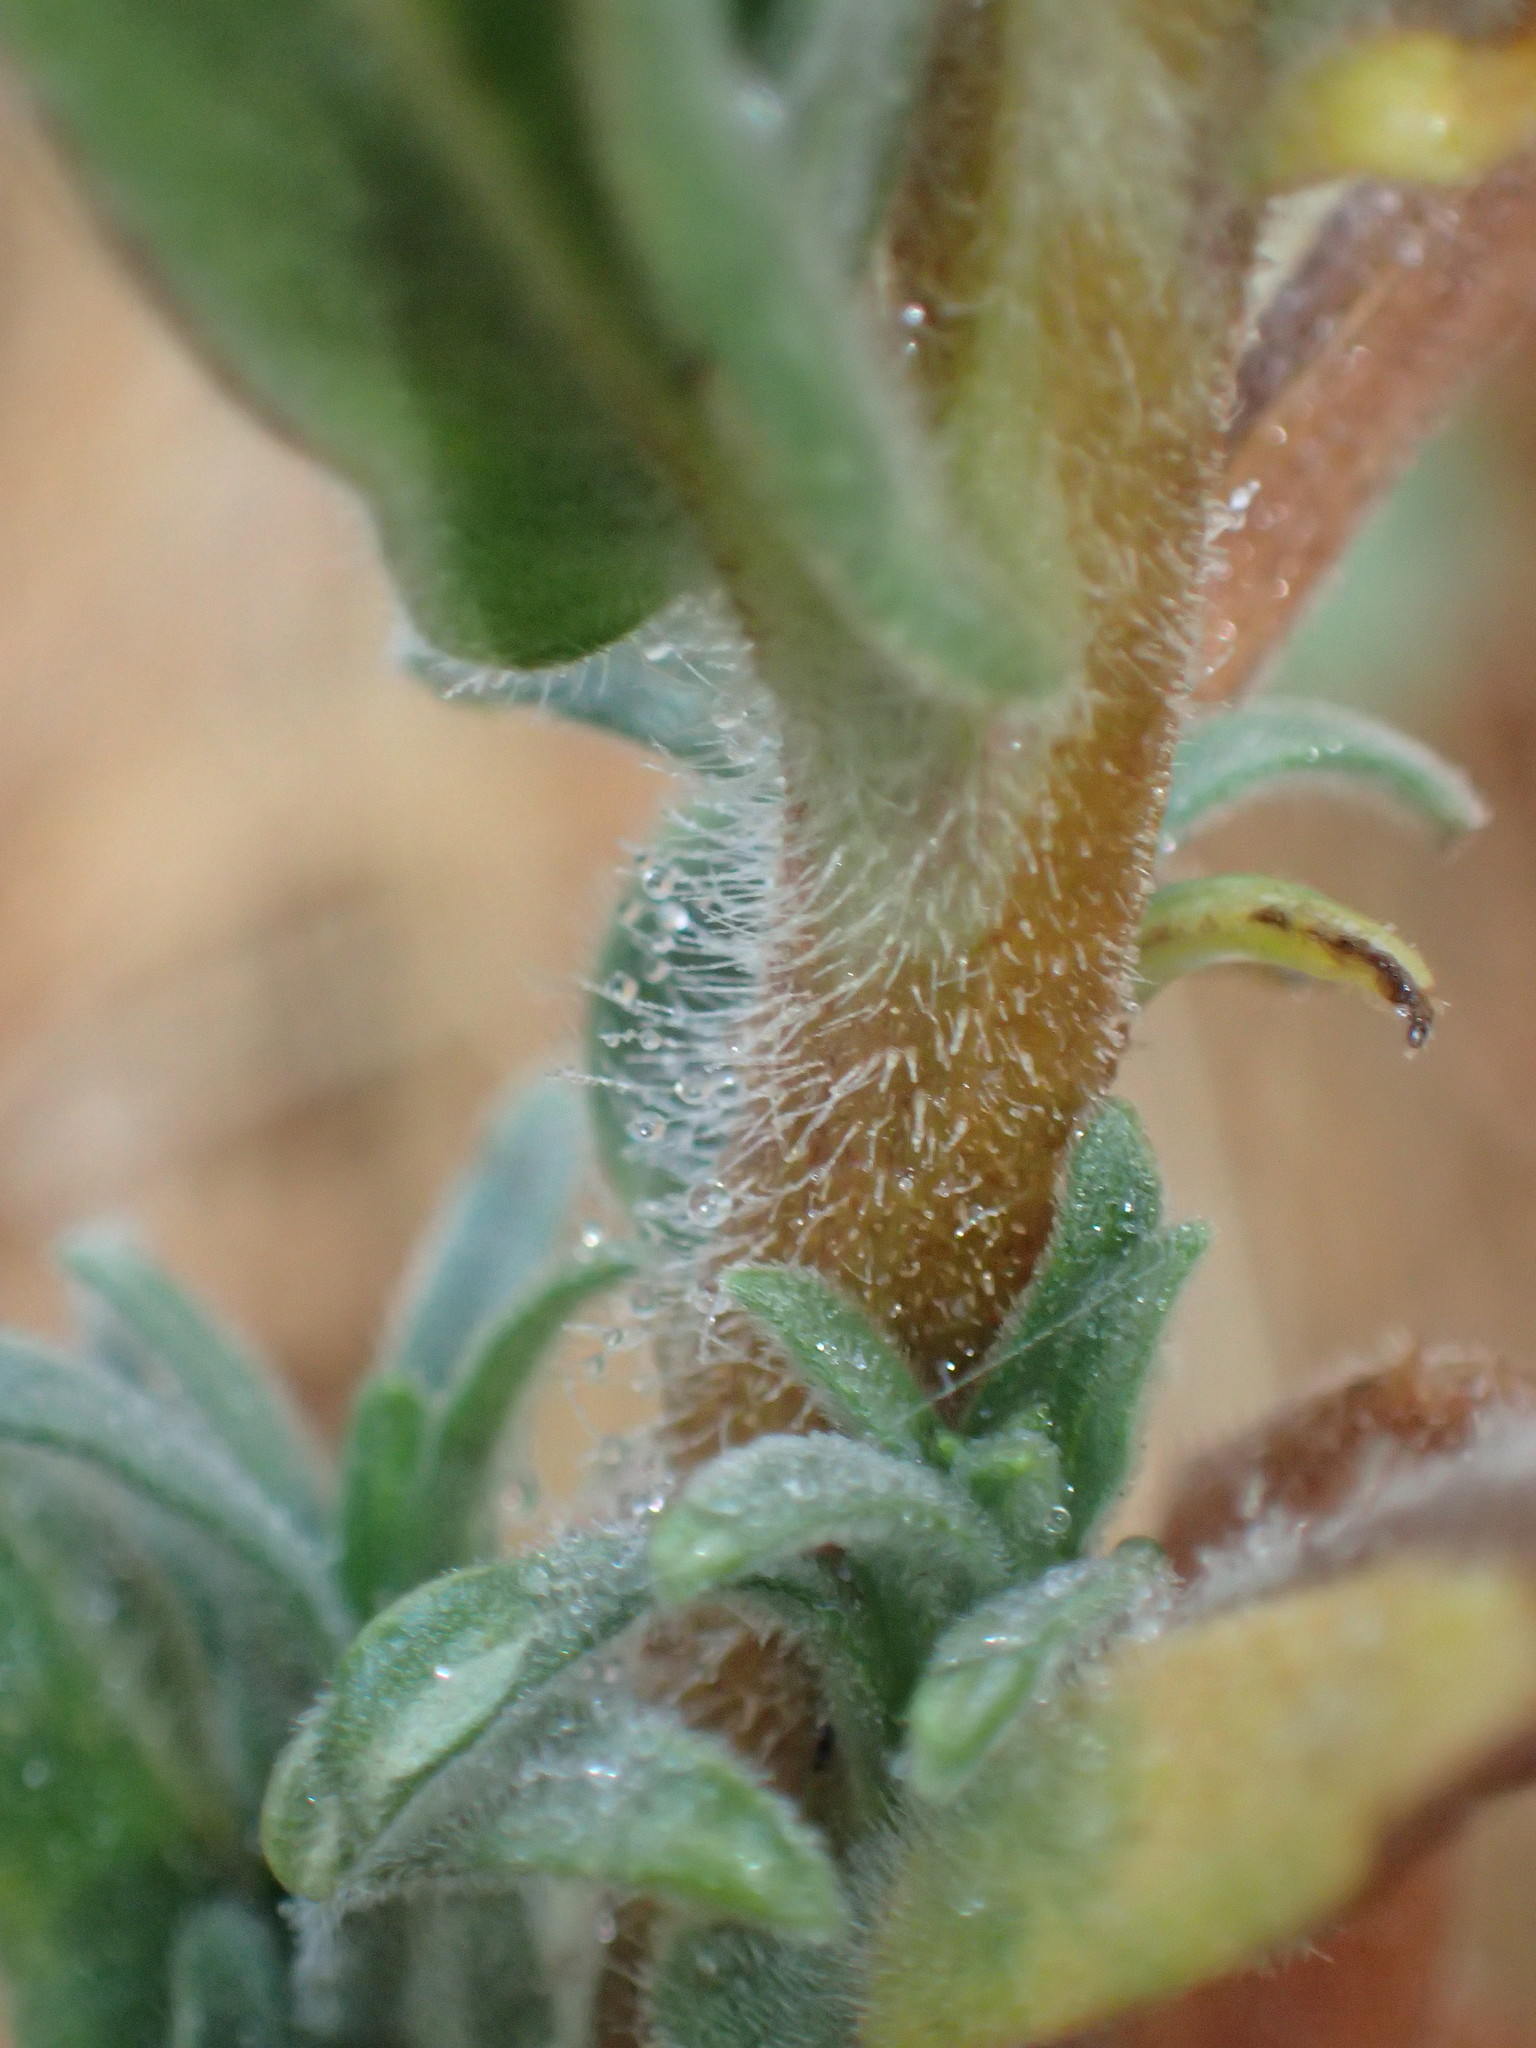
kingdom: Plantae
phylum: Tracheophyta
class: Magnoliopsida
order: Asterales
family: Asteraceae
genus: Madia
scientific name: Madia sativa
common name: Coast tarweed
